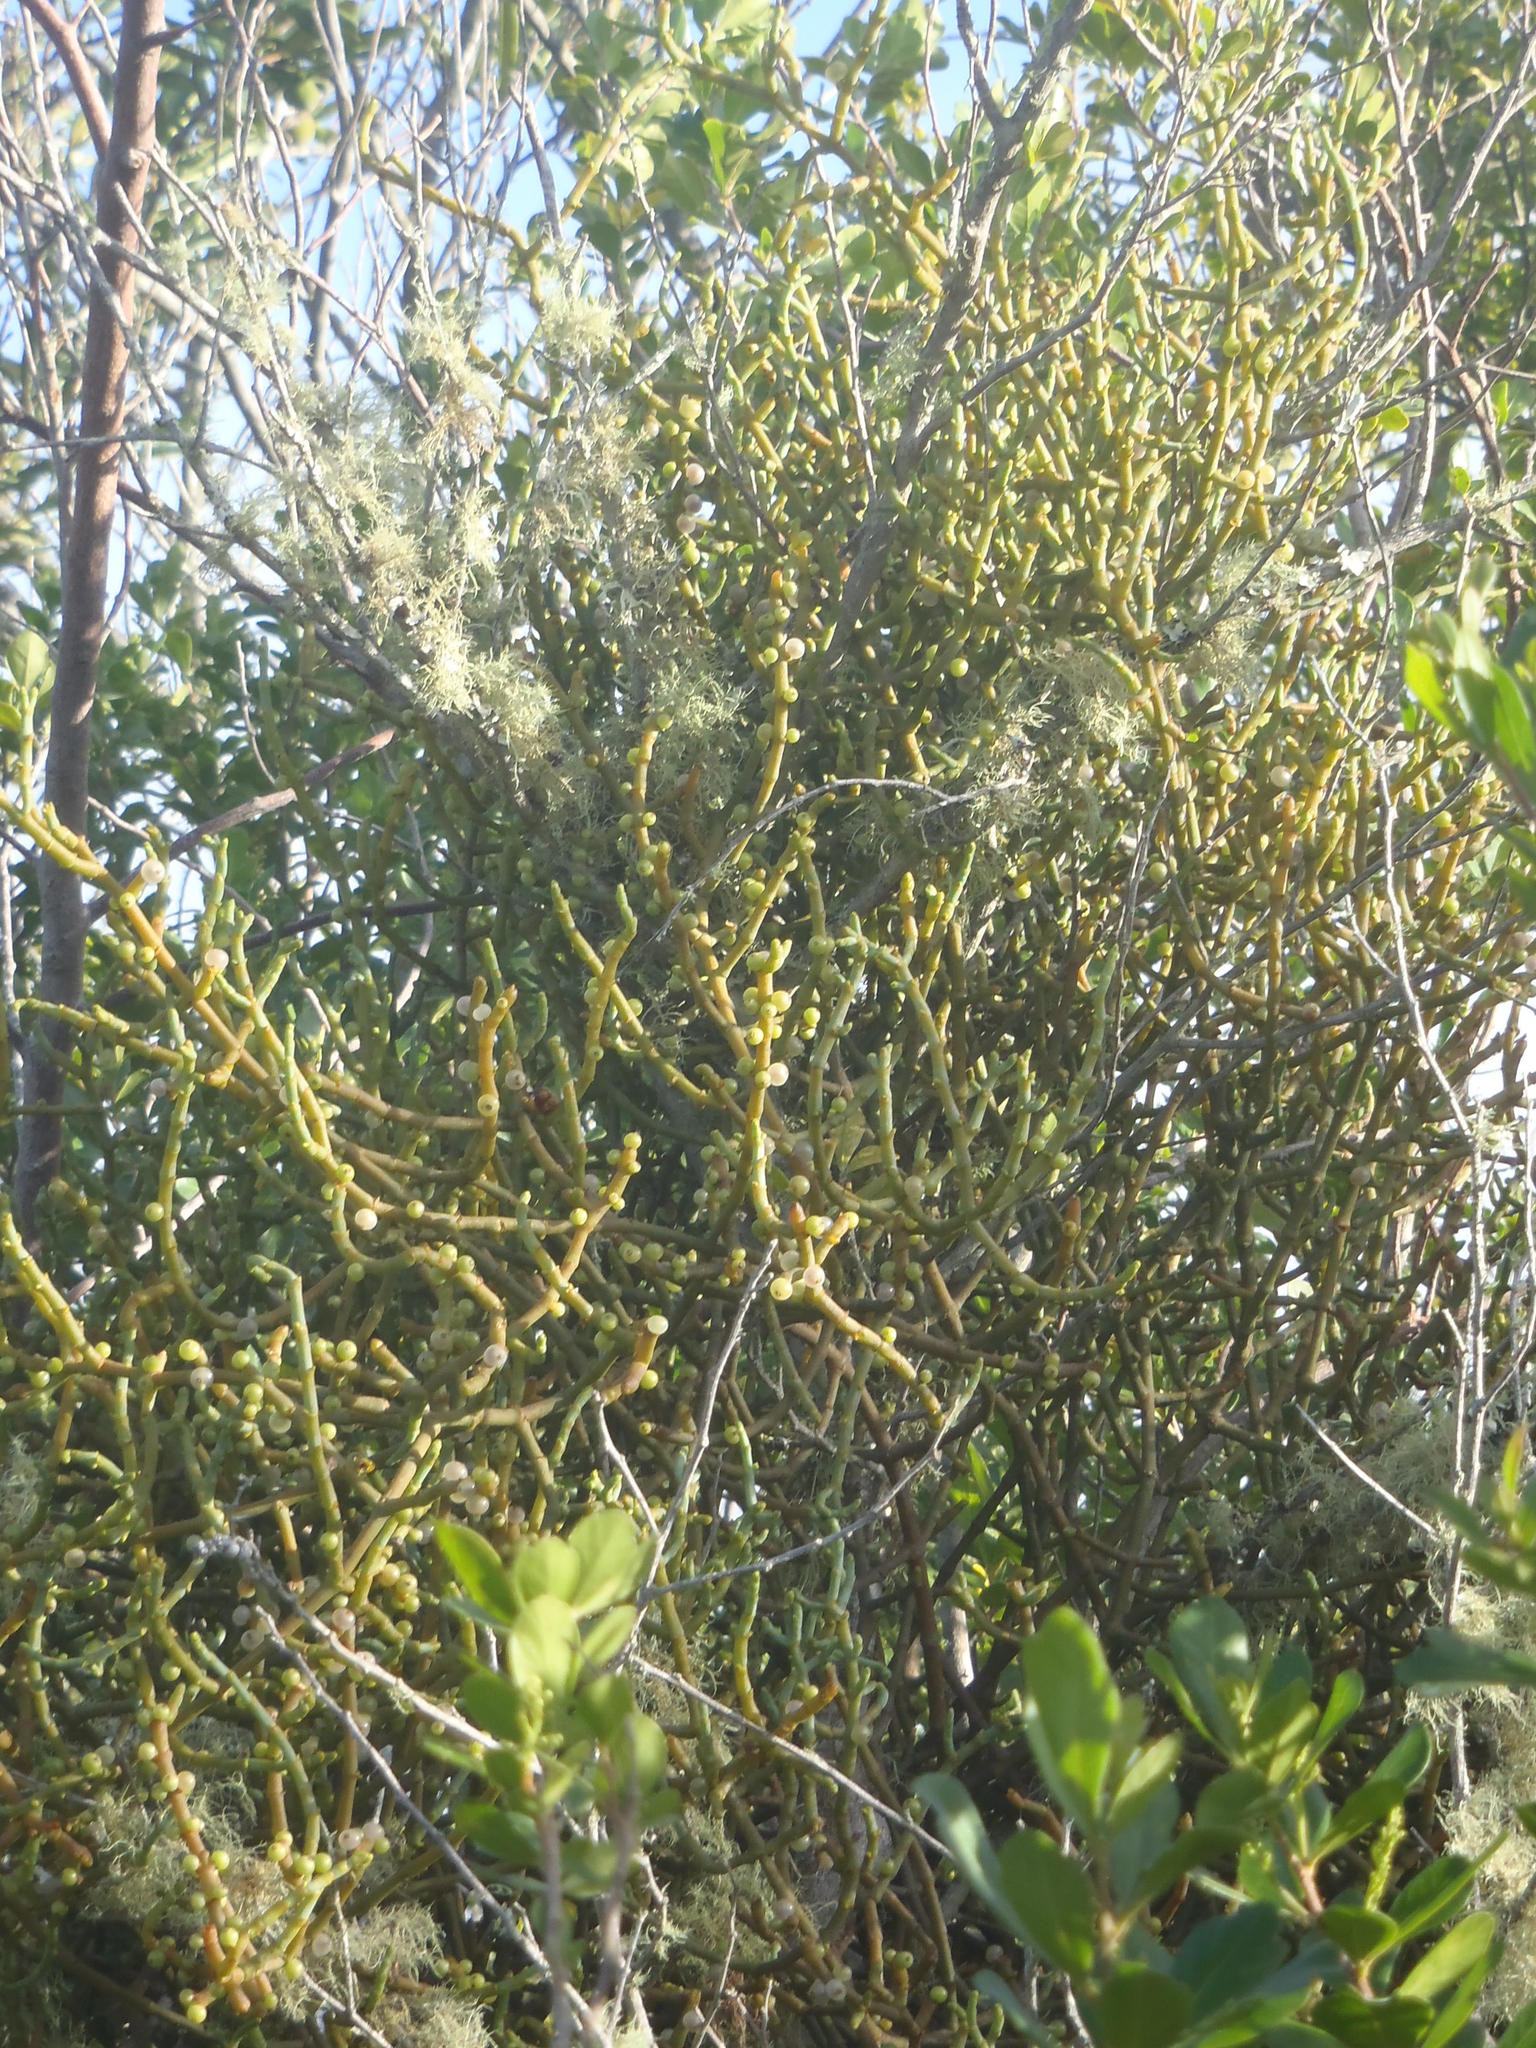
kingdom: Plantae
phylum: Tracheophyta
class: Magnoliopsida
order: Santalales
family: Viscaceae
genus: Viscum
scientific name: Viscum capense
